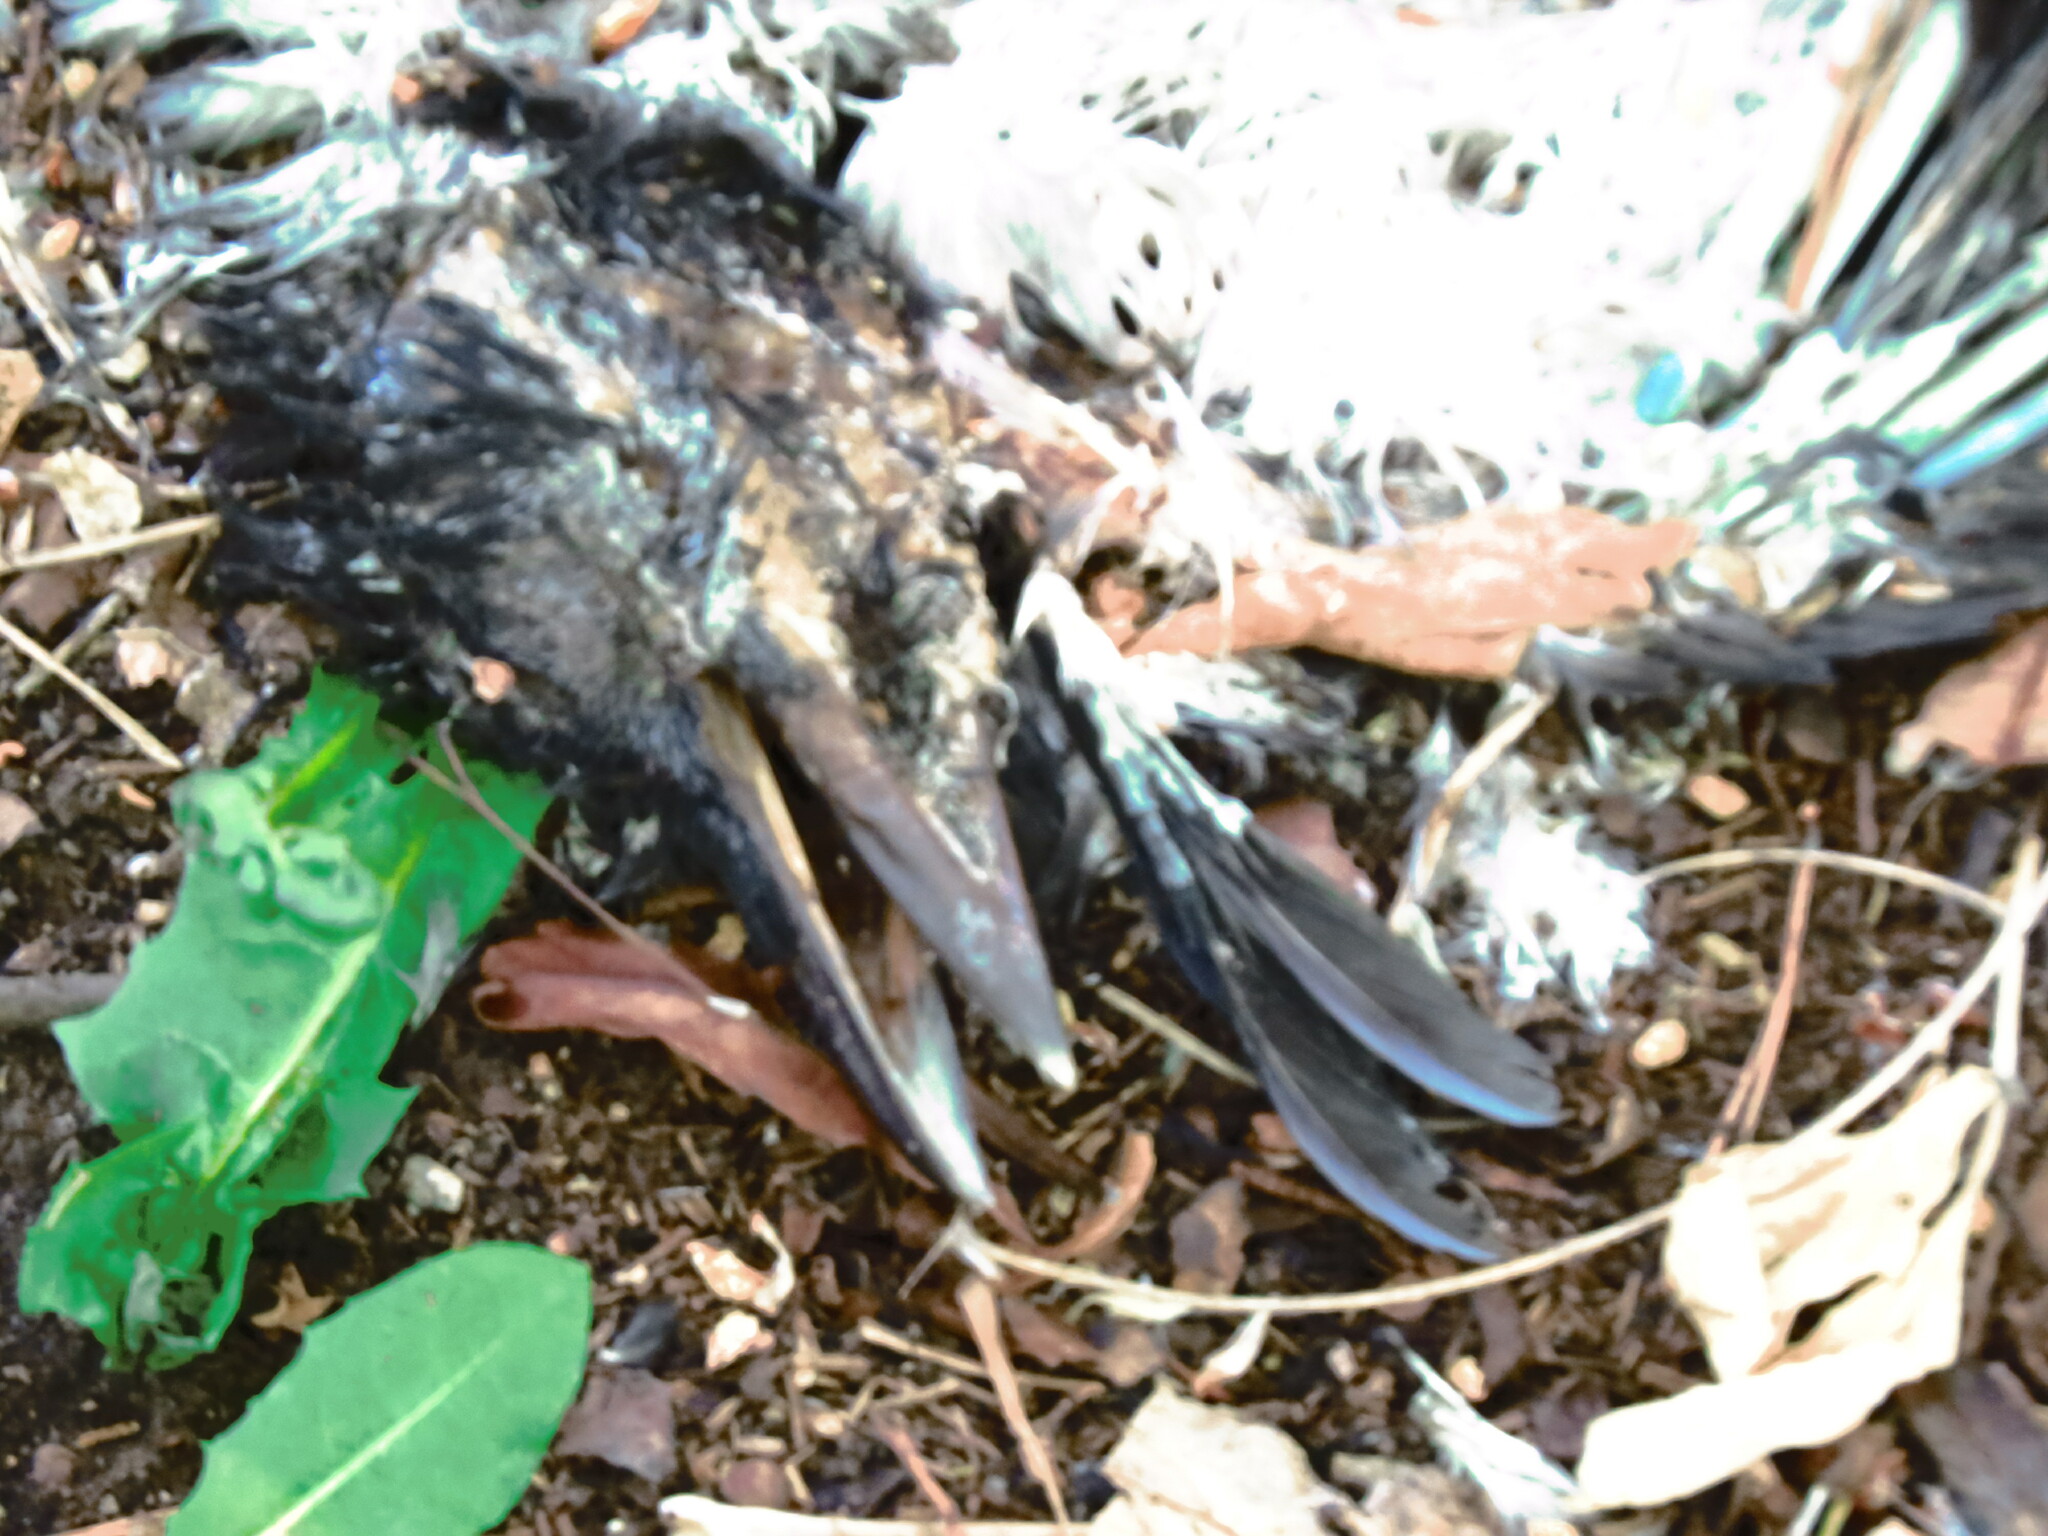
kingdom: Animalia
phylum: Chordata
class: Aves
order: Passeriformes
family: Corvidae
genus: Corvus
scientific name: Corvus cornix
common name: Hooded crow
